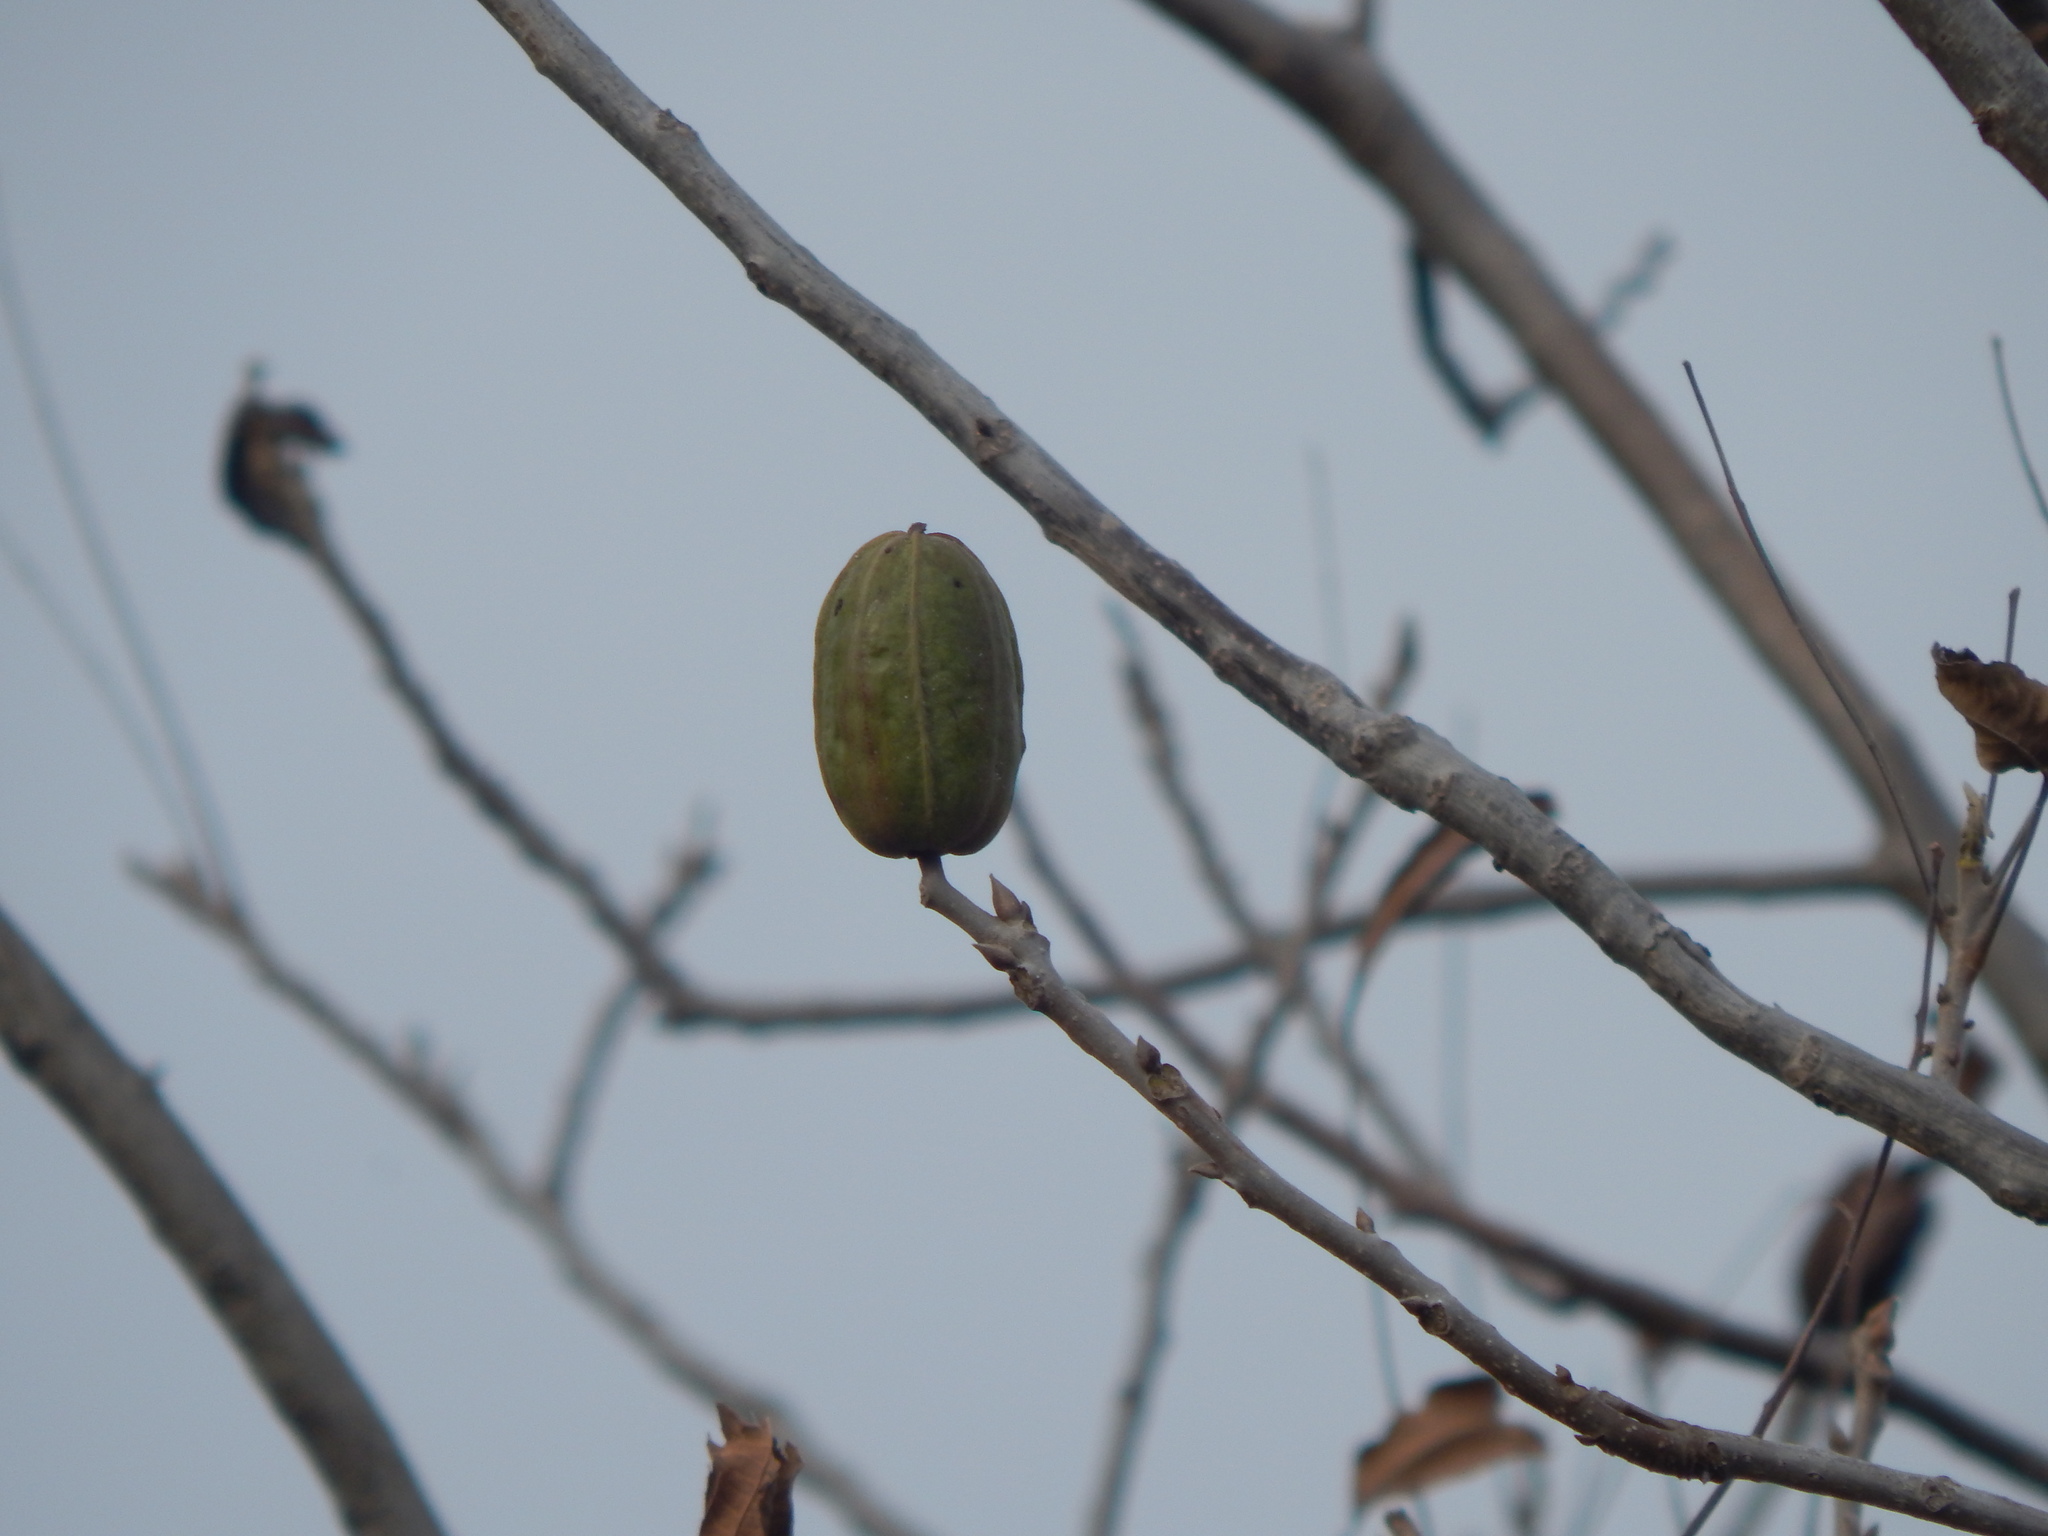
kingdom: Plantae
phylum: Tracheophyta
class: Magnoliopsida
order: Fagales
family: Juglandaceae
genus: Carya
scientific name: Carya illinoinensis
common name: Pecan
